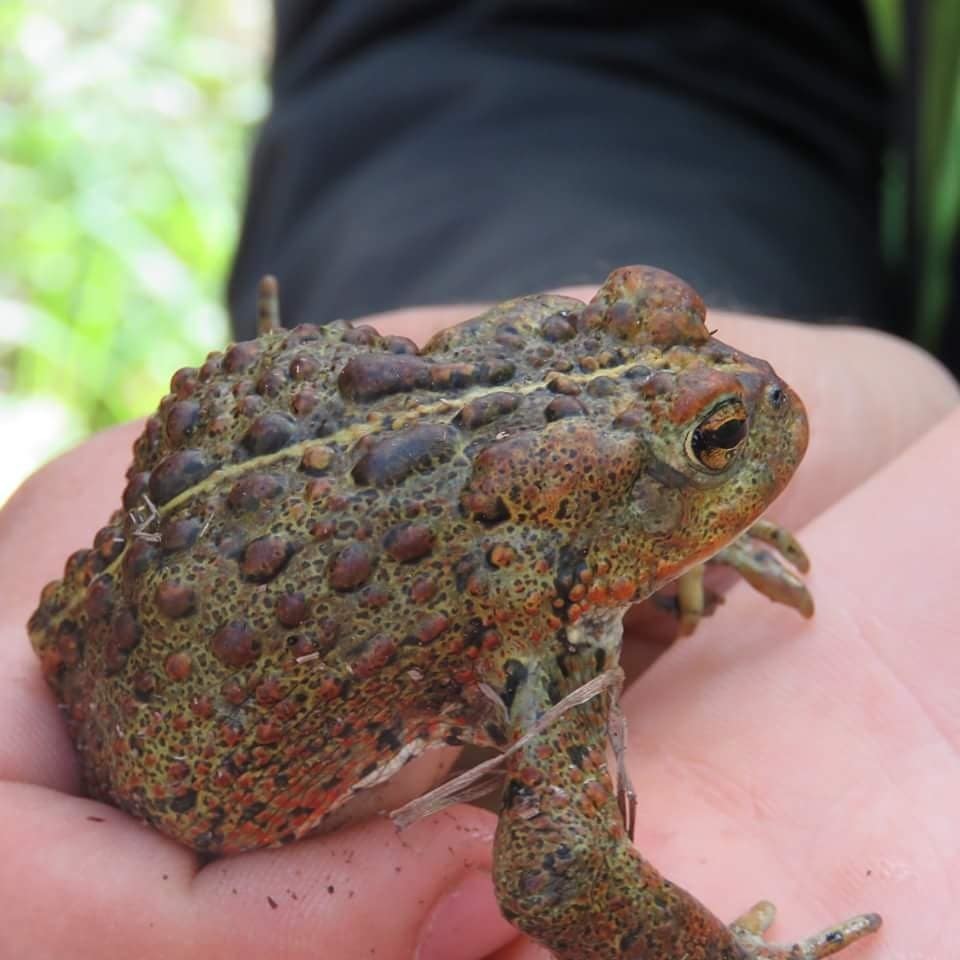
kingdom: Animalia
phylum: Chordata
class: Amphibia
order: Anura
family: Bufonidae
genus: Anaxyrus
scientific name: Anaxyrus boreas
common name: Western toad
